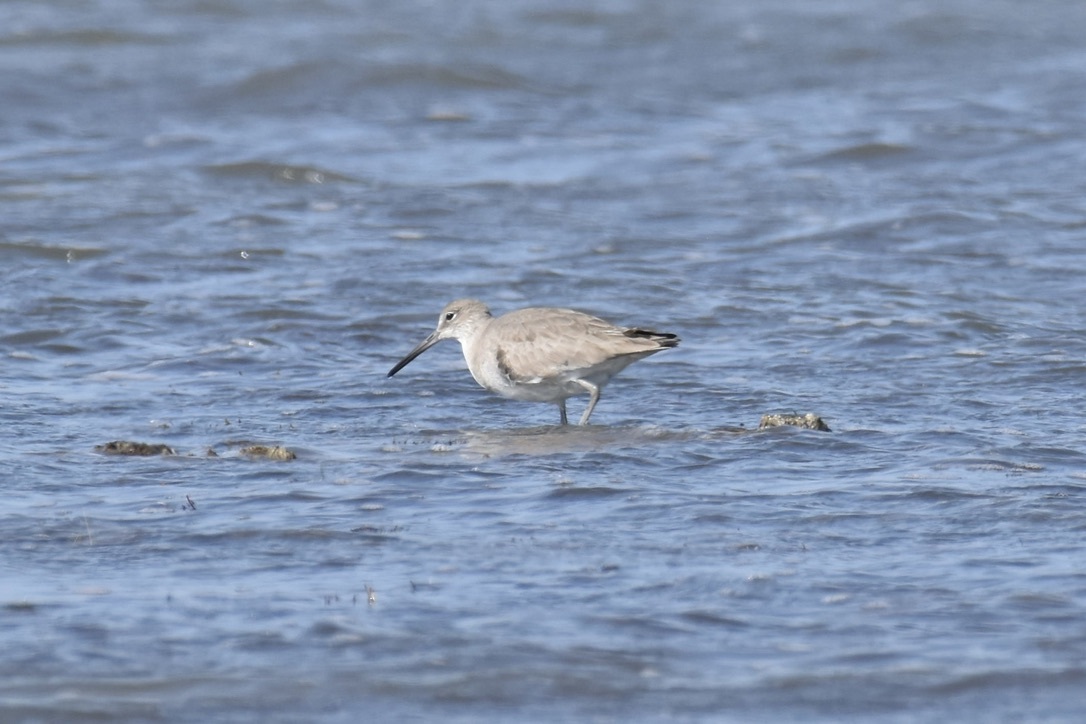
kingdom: Animalia
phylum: Chordata
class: Aves
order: Charadriiformes
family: Scolopacidae
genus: Tringa
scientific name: Tringa semipalmata
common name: Willet
